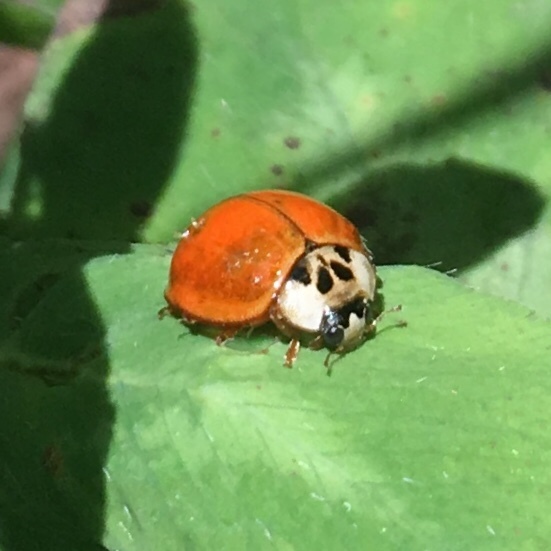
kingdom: Animalia
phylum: Arthropoda
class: Insecta
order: Coleoptera
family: Coccinellidae
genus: Harmonia
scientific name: Harmonia axyridis
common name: Harlequin ladybird
